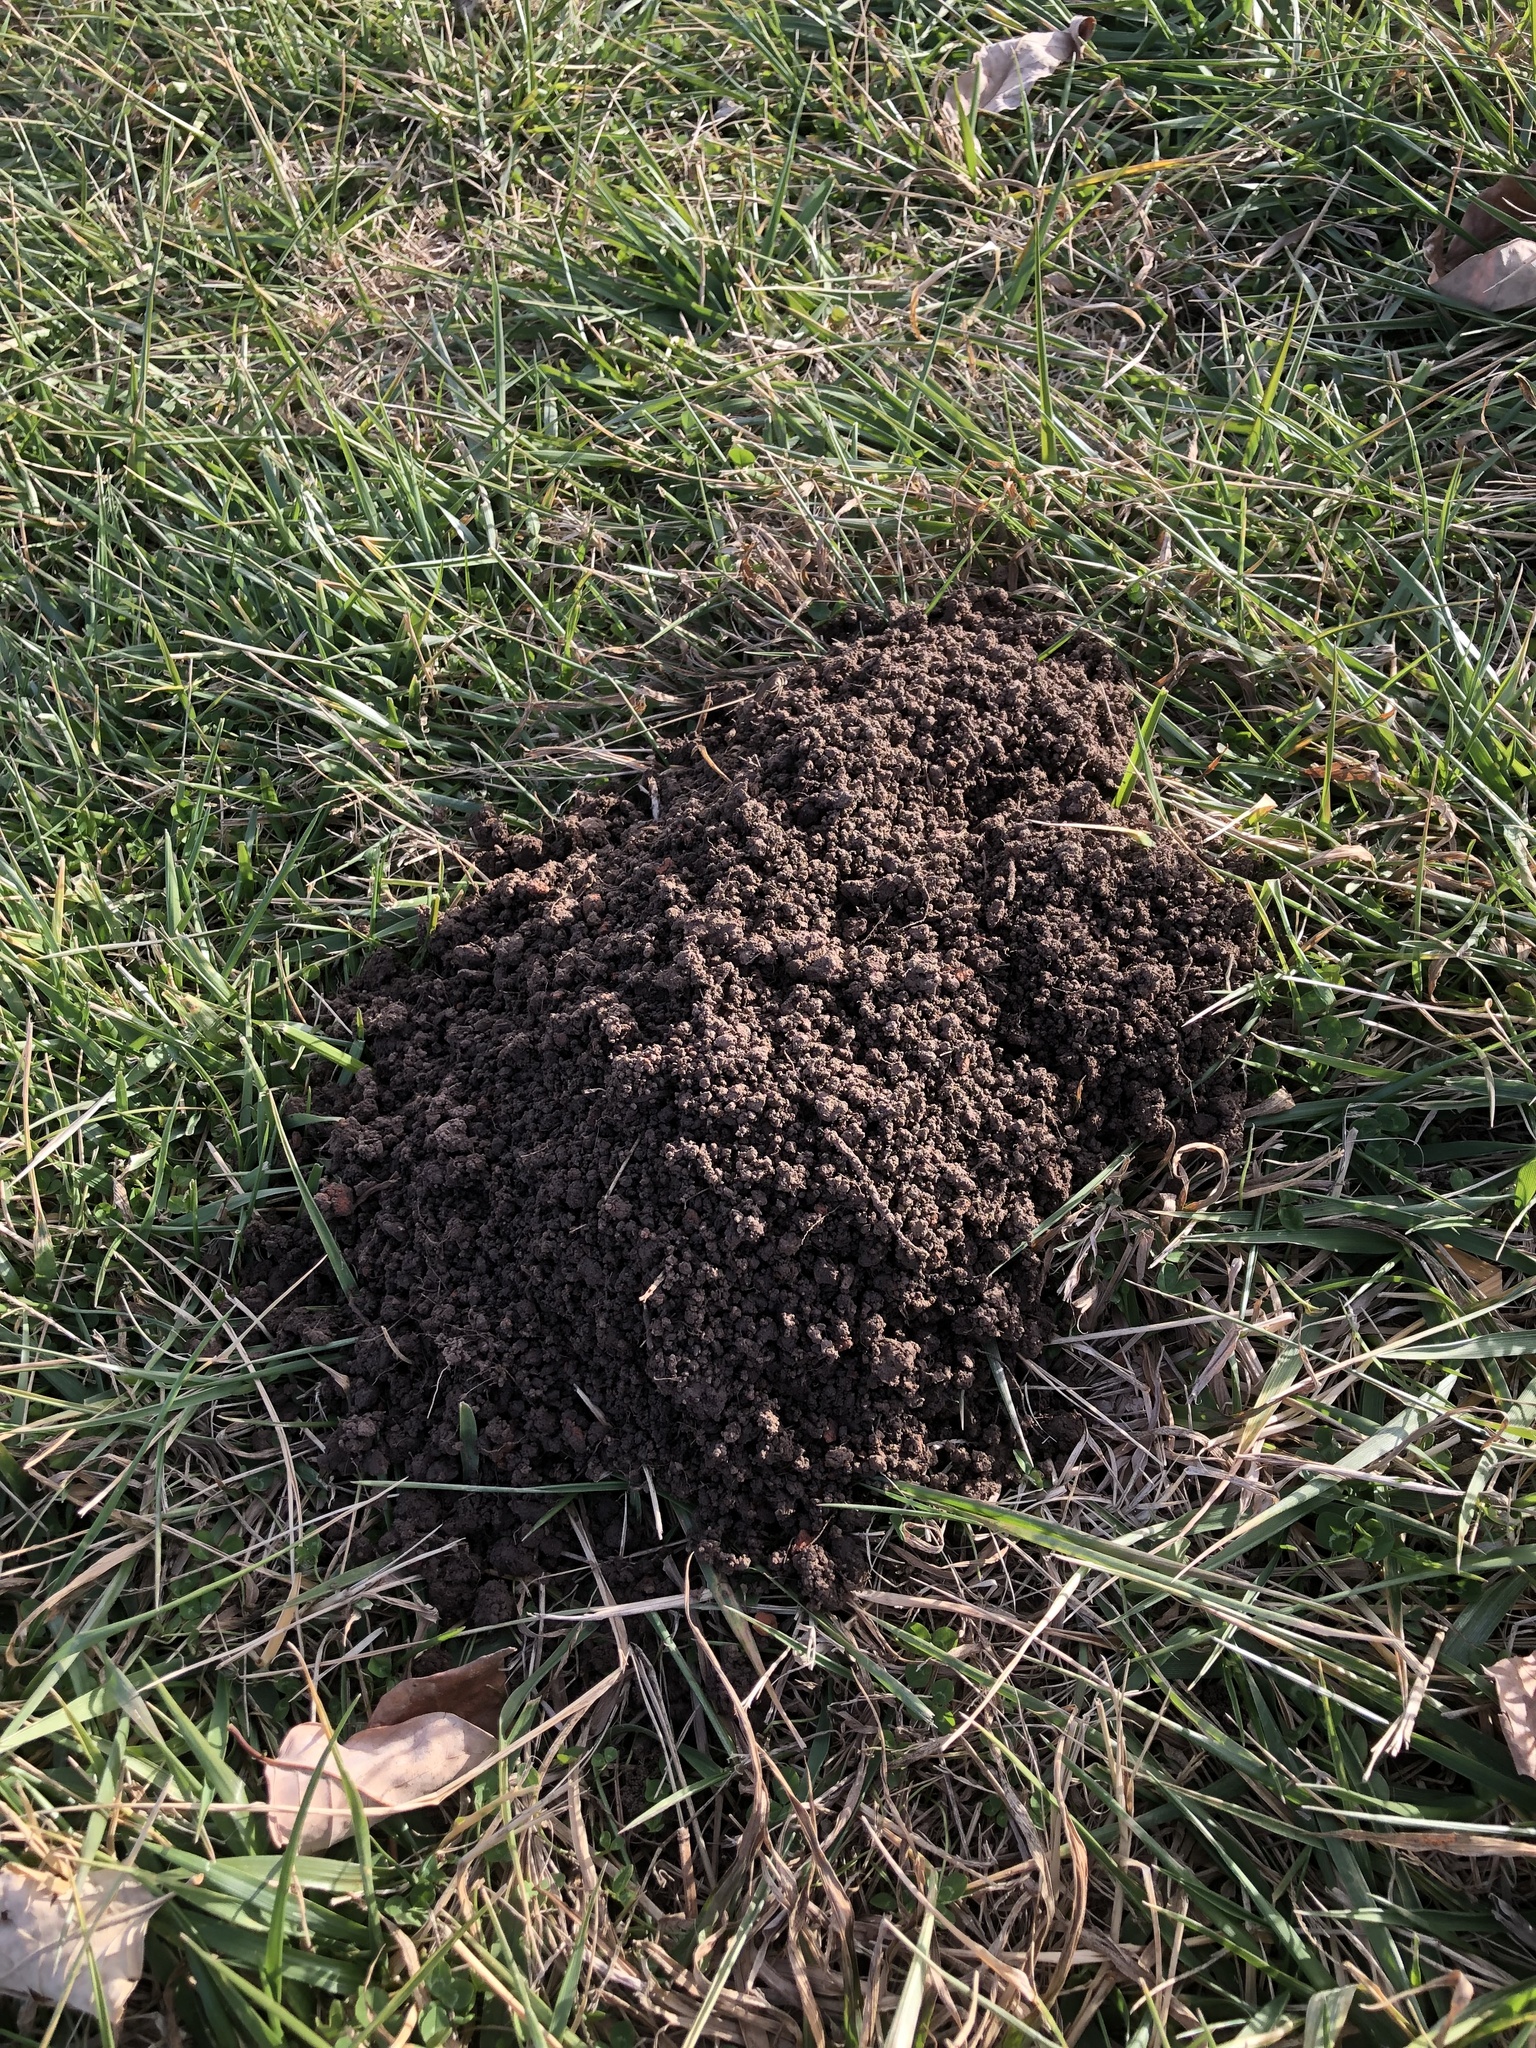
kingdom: Animalia
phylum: Chordata
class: Mammalia
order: Rodentia
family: Geomyidae
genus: Geomys
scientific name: Geomys bursarius
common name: Plains pocket gopher
